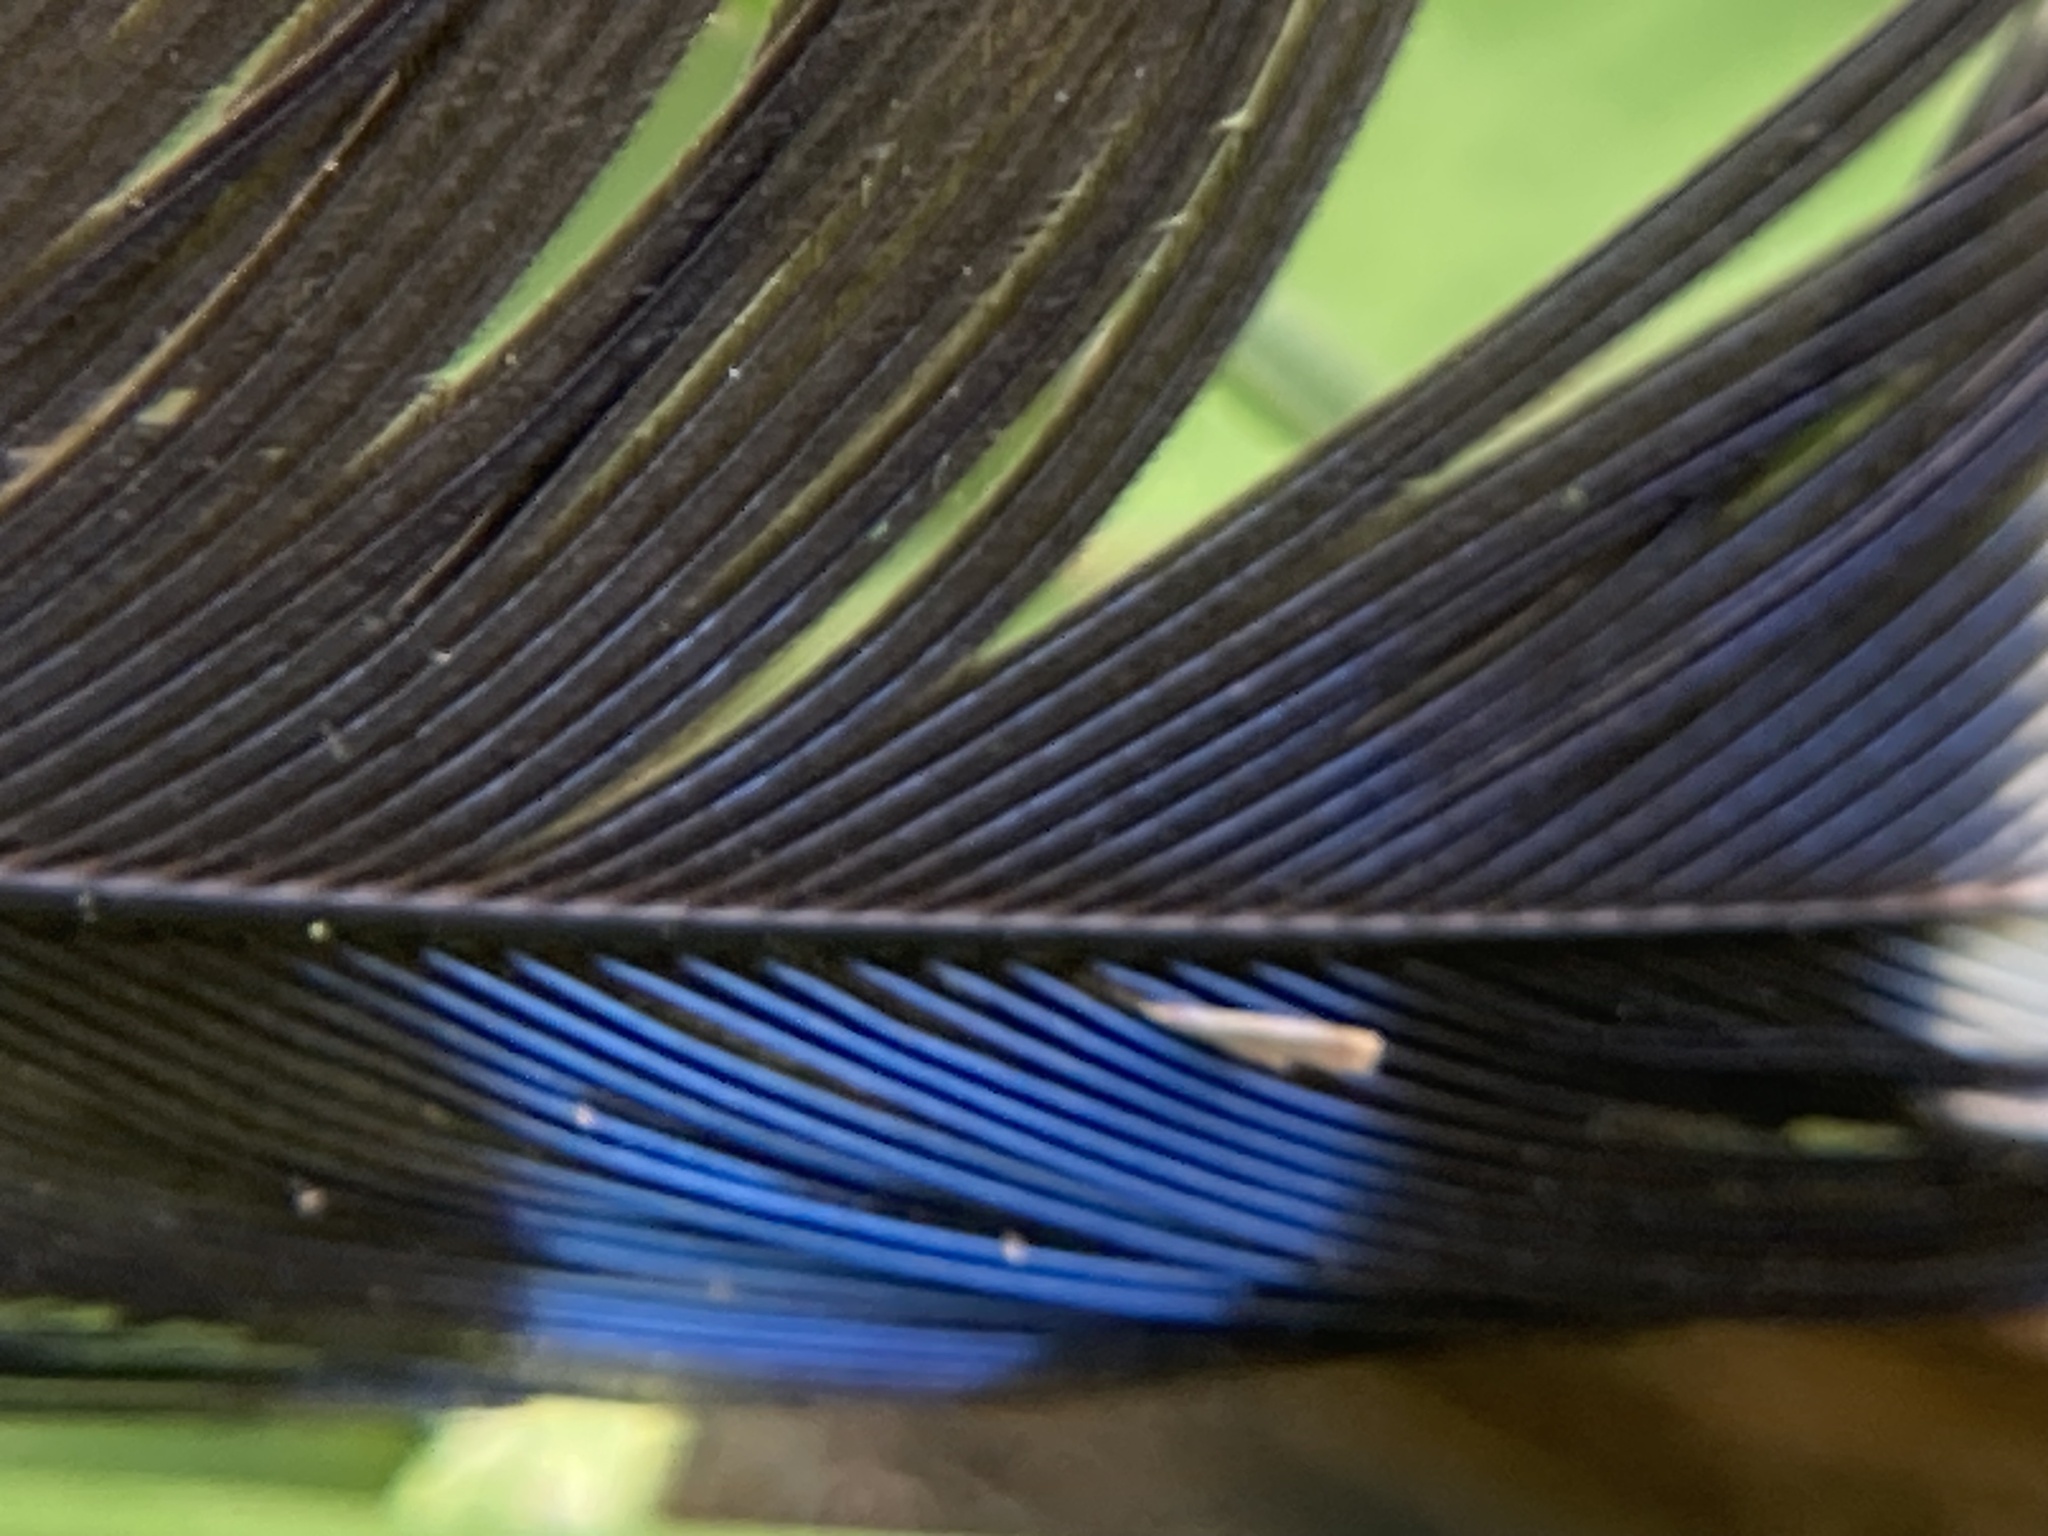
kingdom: Animalia
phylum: Chordata
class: Aves
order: Passeriformes
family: Corvidae
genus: Cyanocitta
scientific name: Cyanocitta cristata
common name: Blue jay
